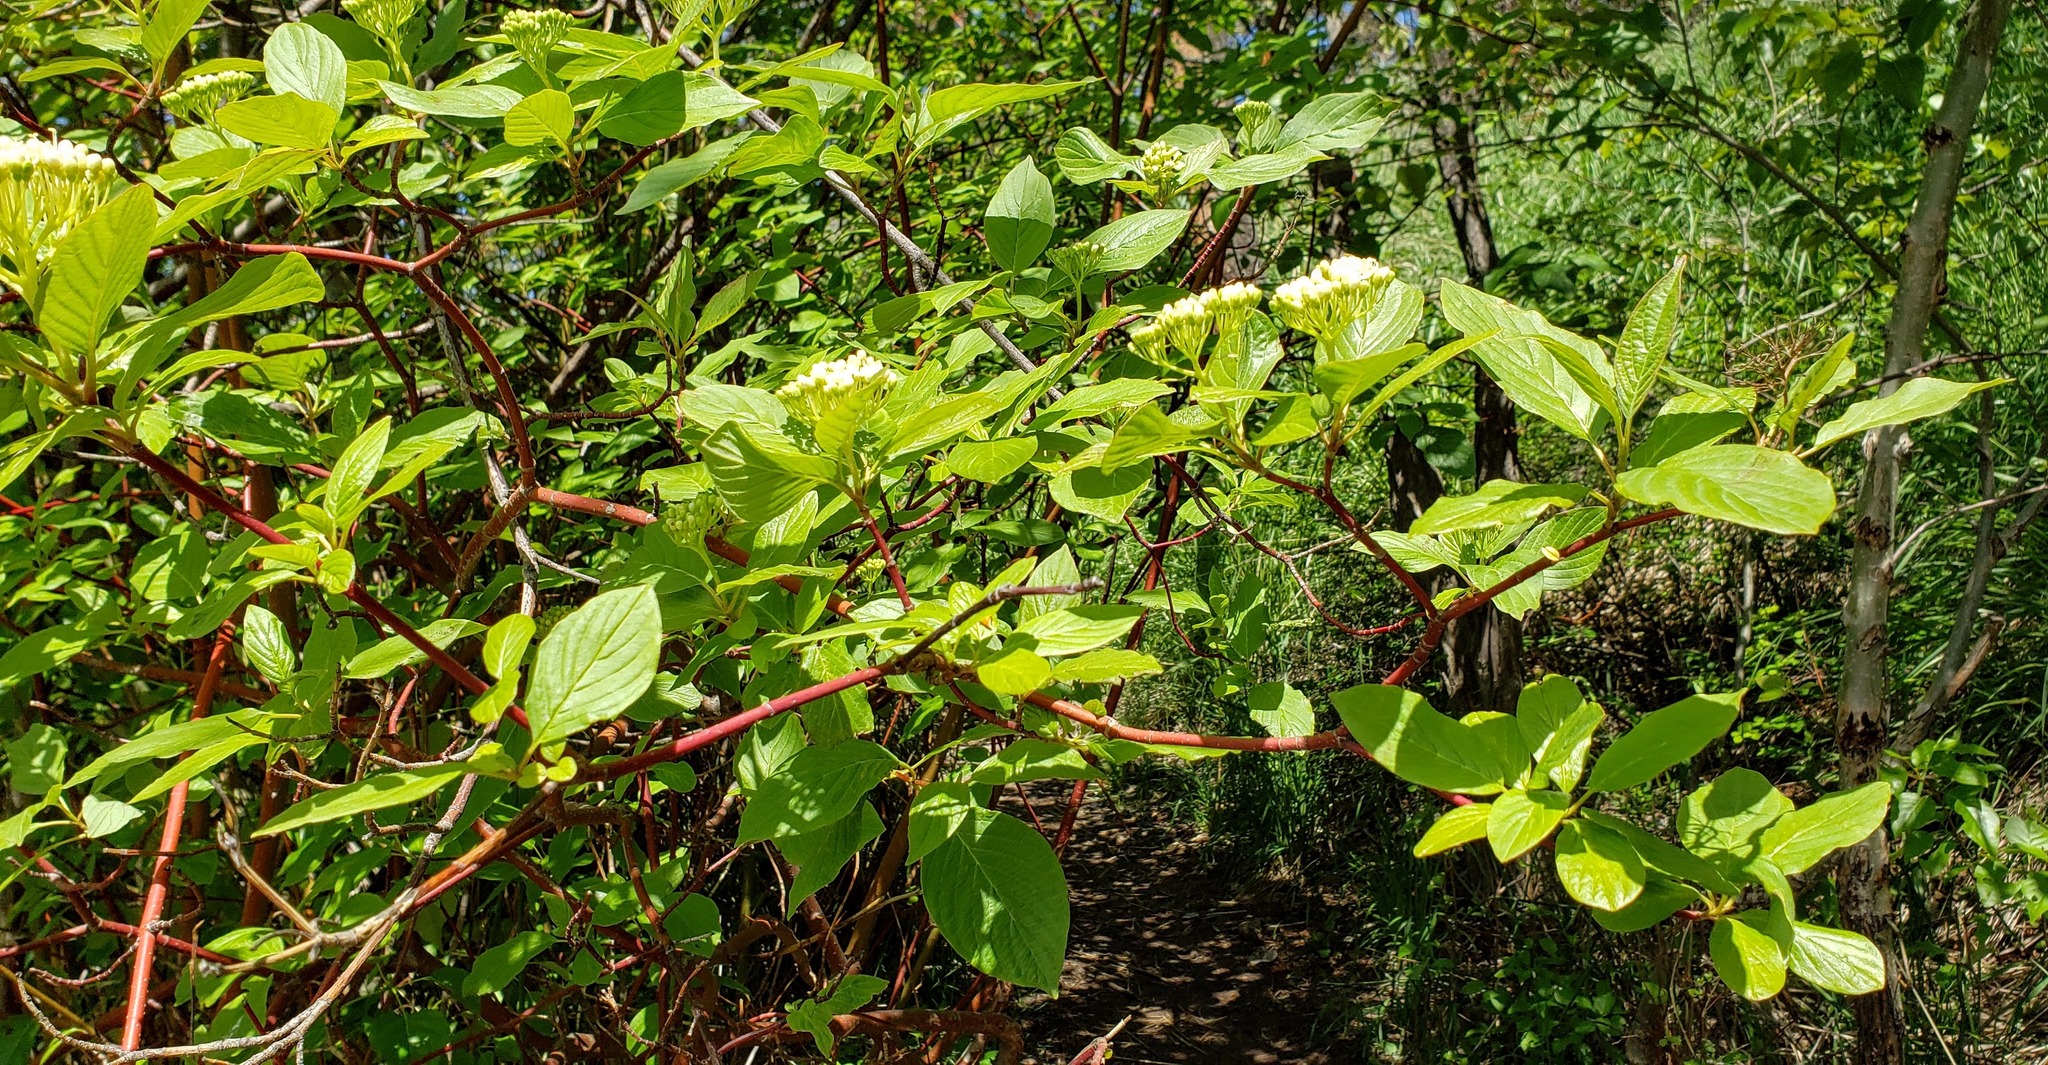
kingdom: Plantae
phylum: Tracheophyta
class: Magnoliopsida
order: Cornales
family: Cornaceae
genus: Cornus
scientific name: Cornus sericea
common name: Red-osier dogwood
